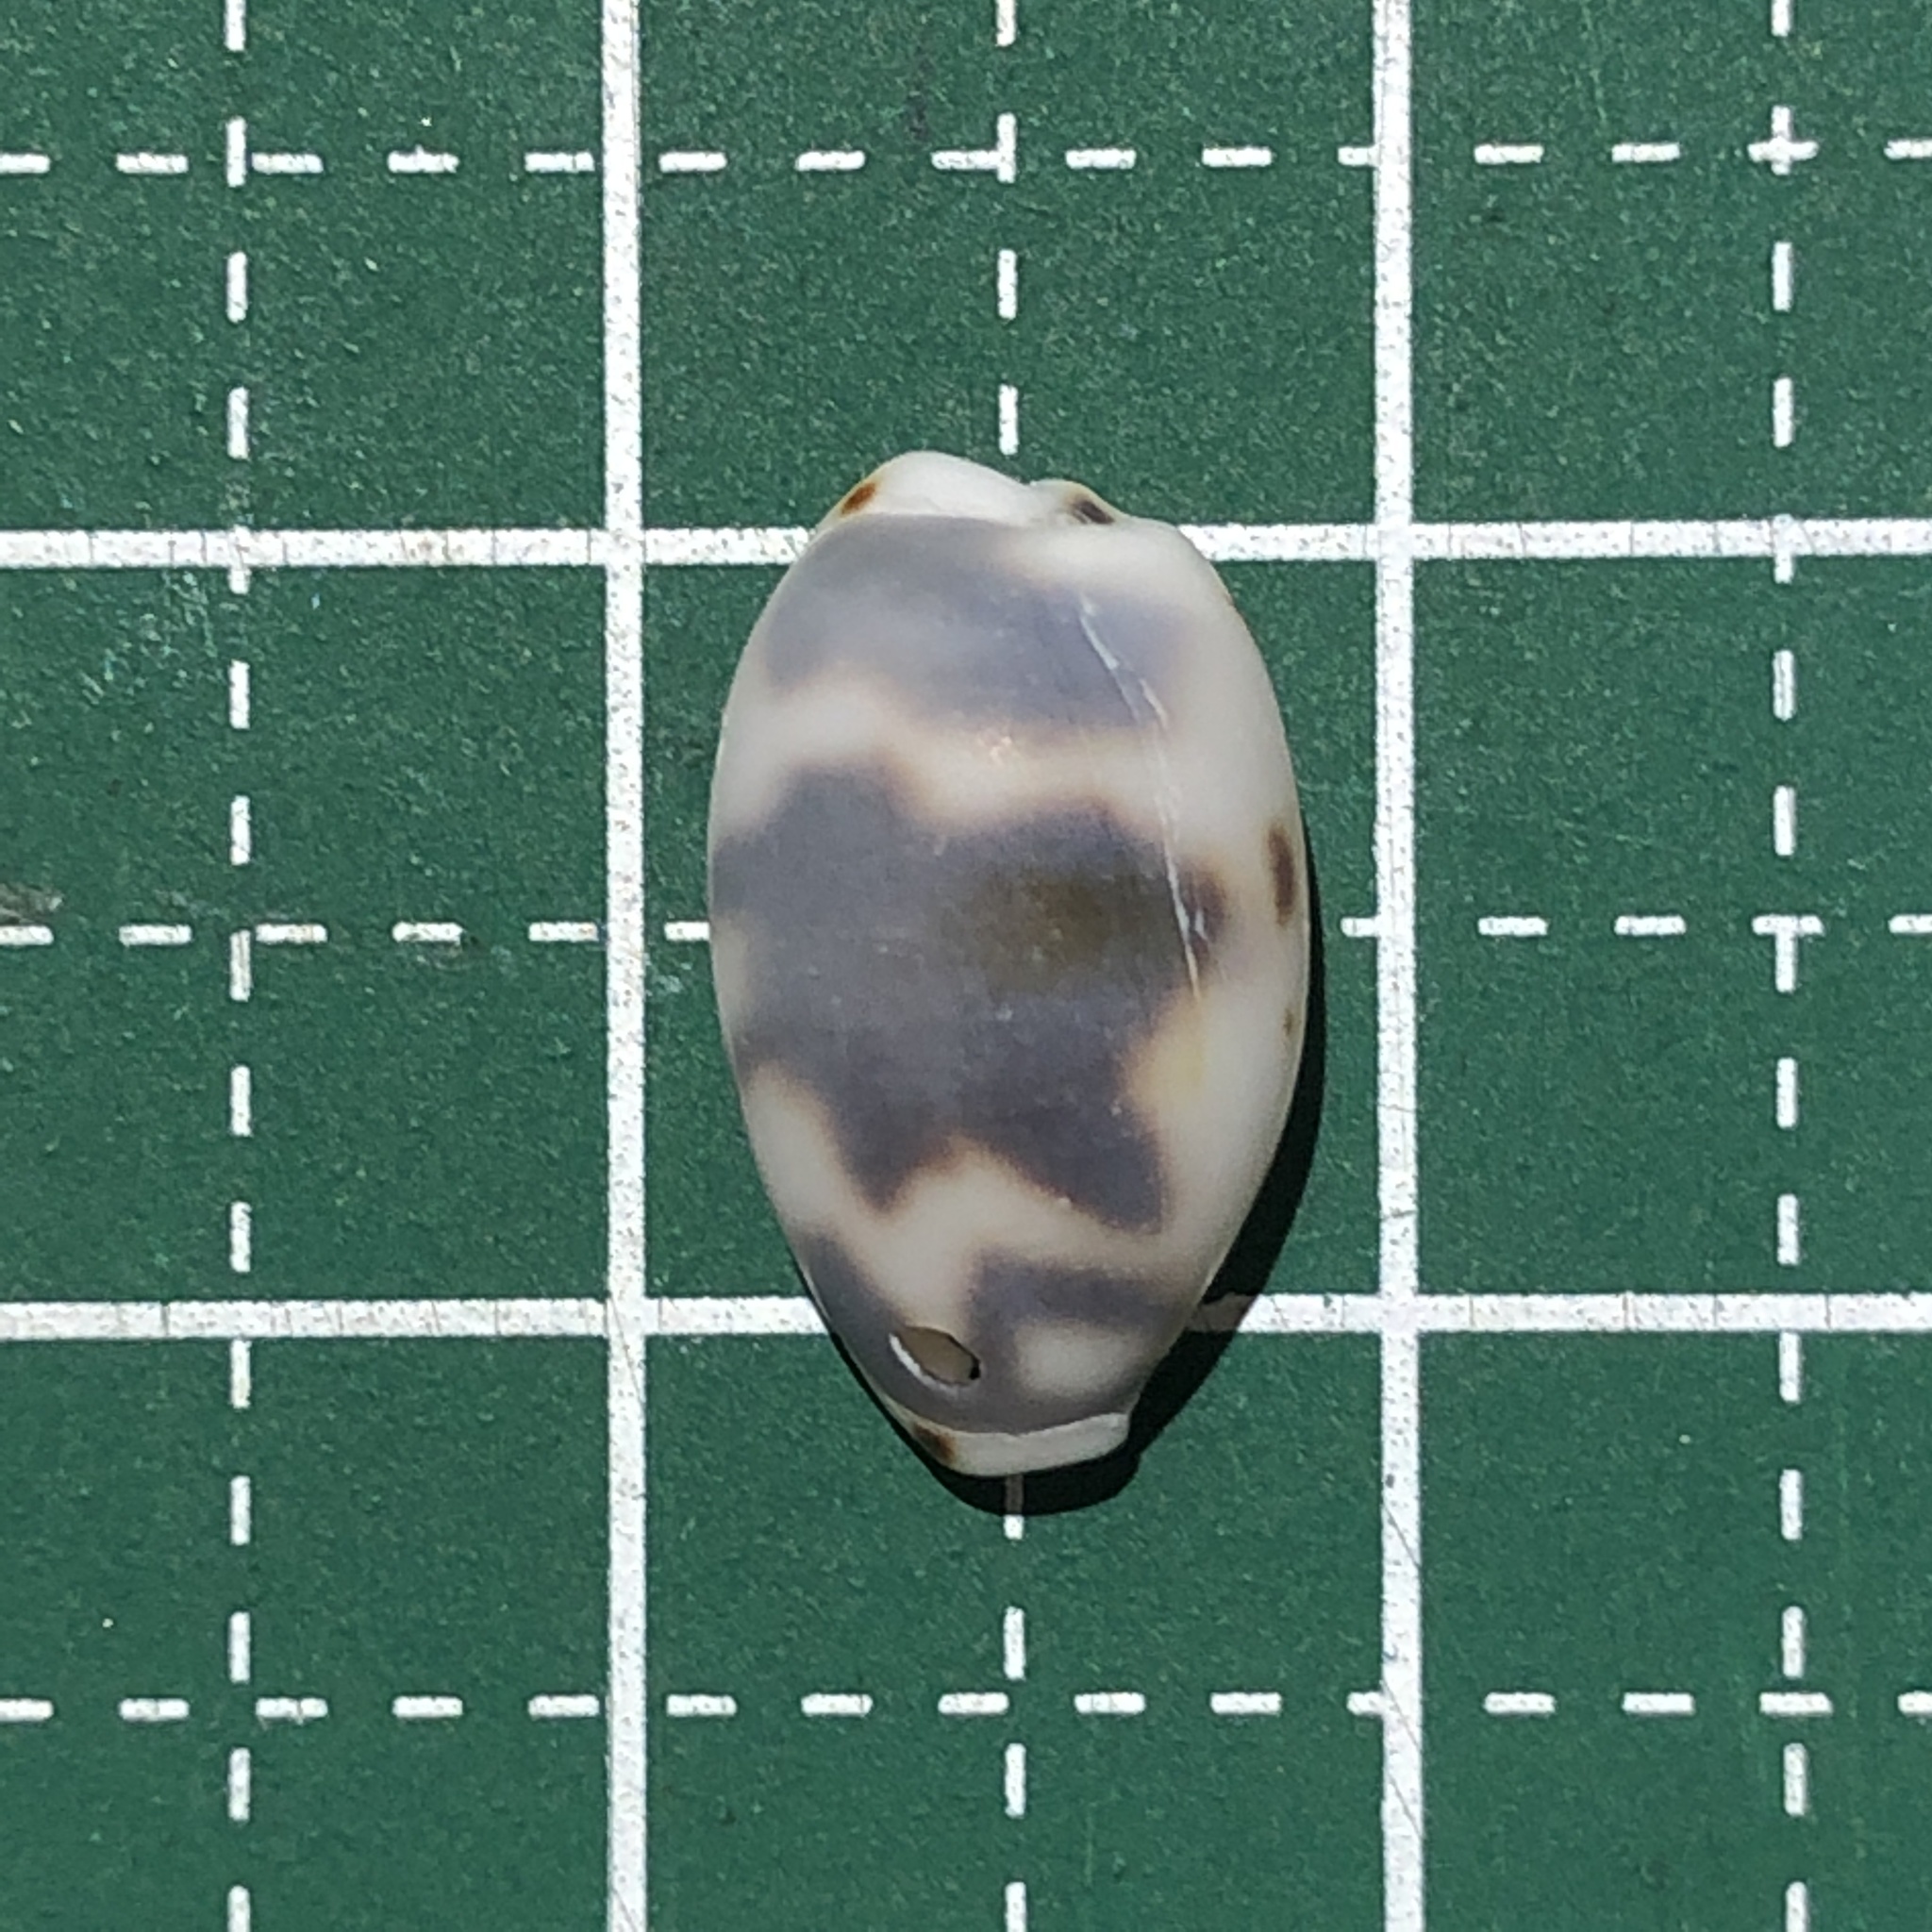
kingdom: Animalia
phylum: Mollusca
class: Gastropoda
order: Littorinimorpha
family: Cypraeidae
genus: Bistolida
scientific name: Bistolida kieneri
